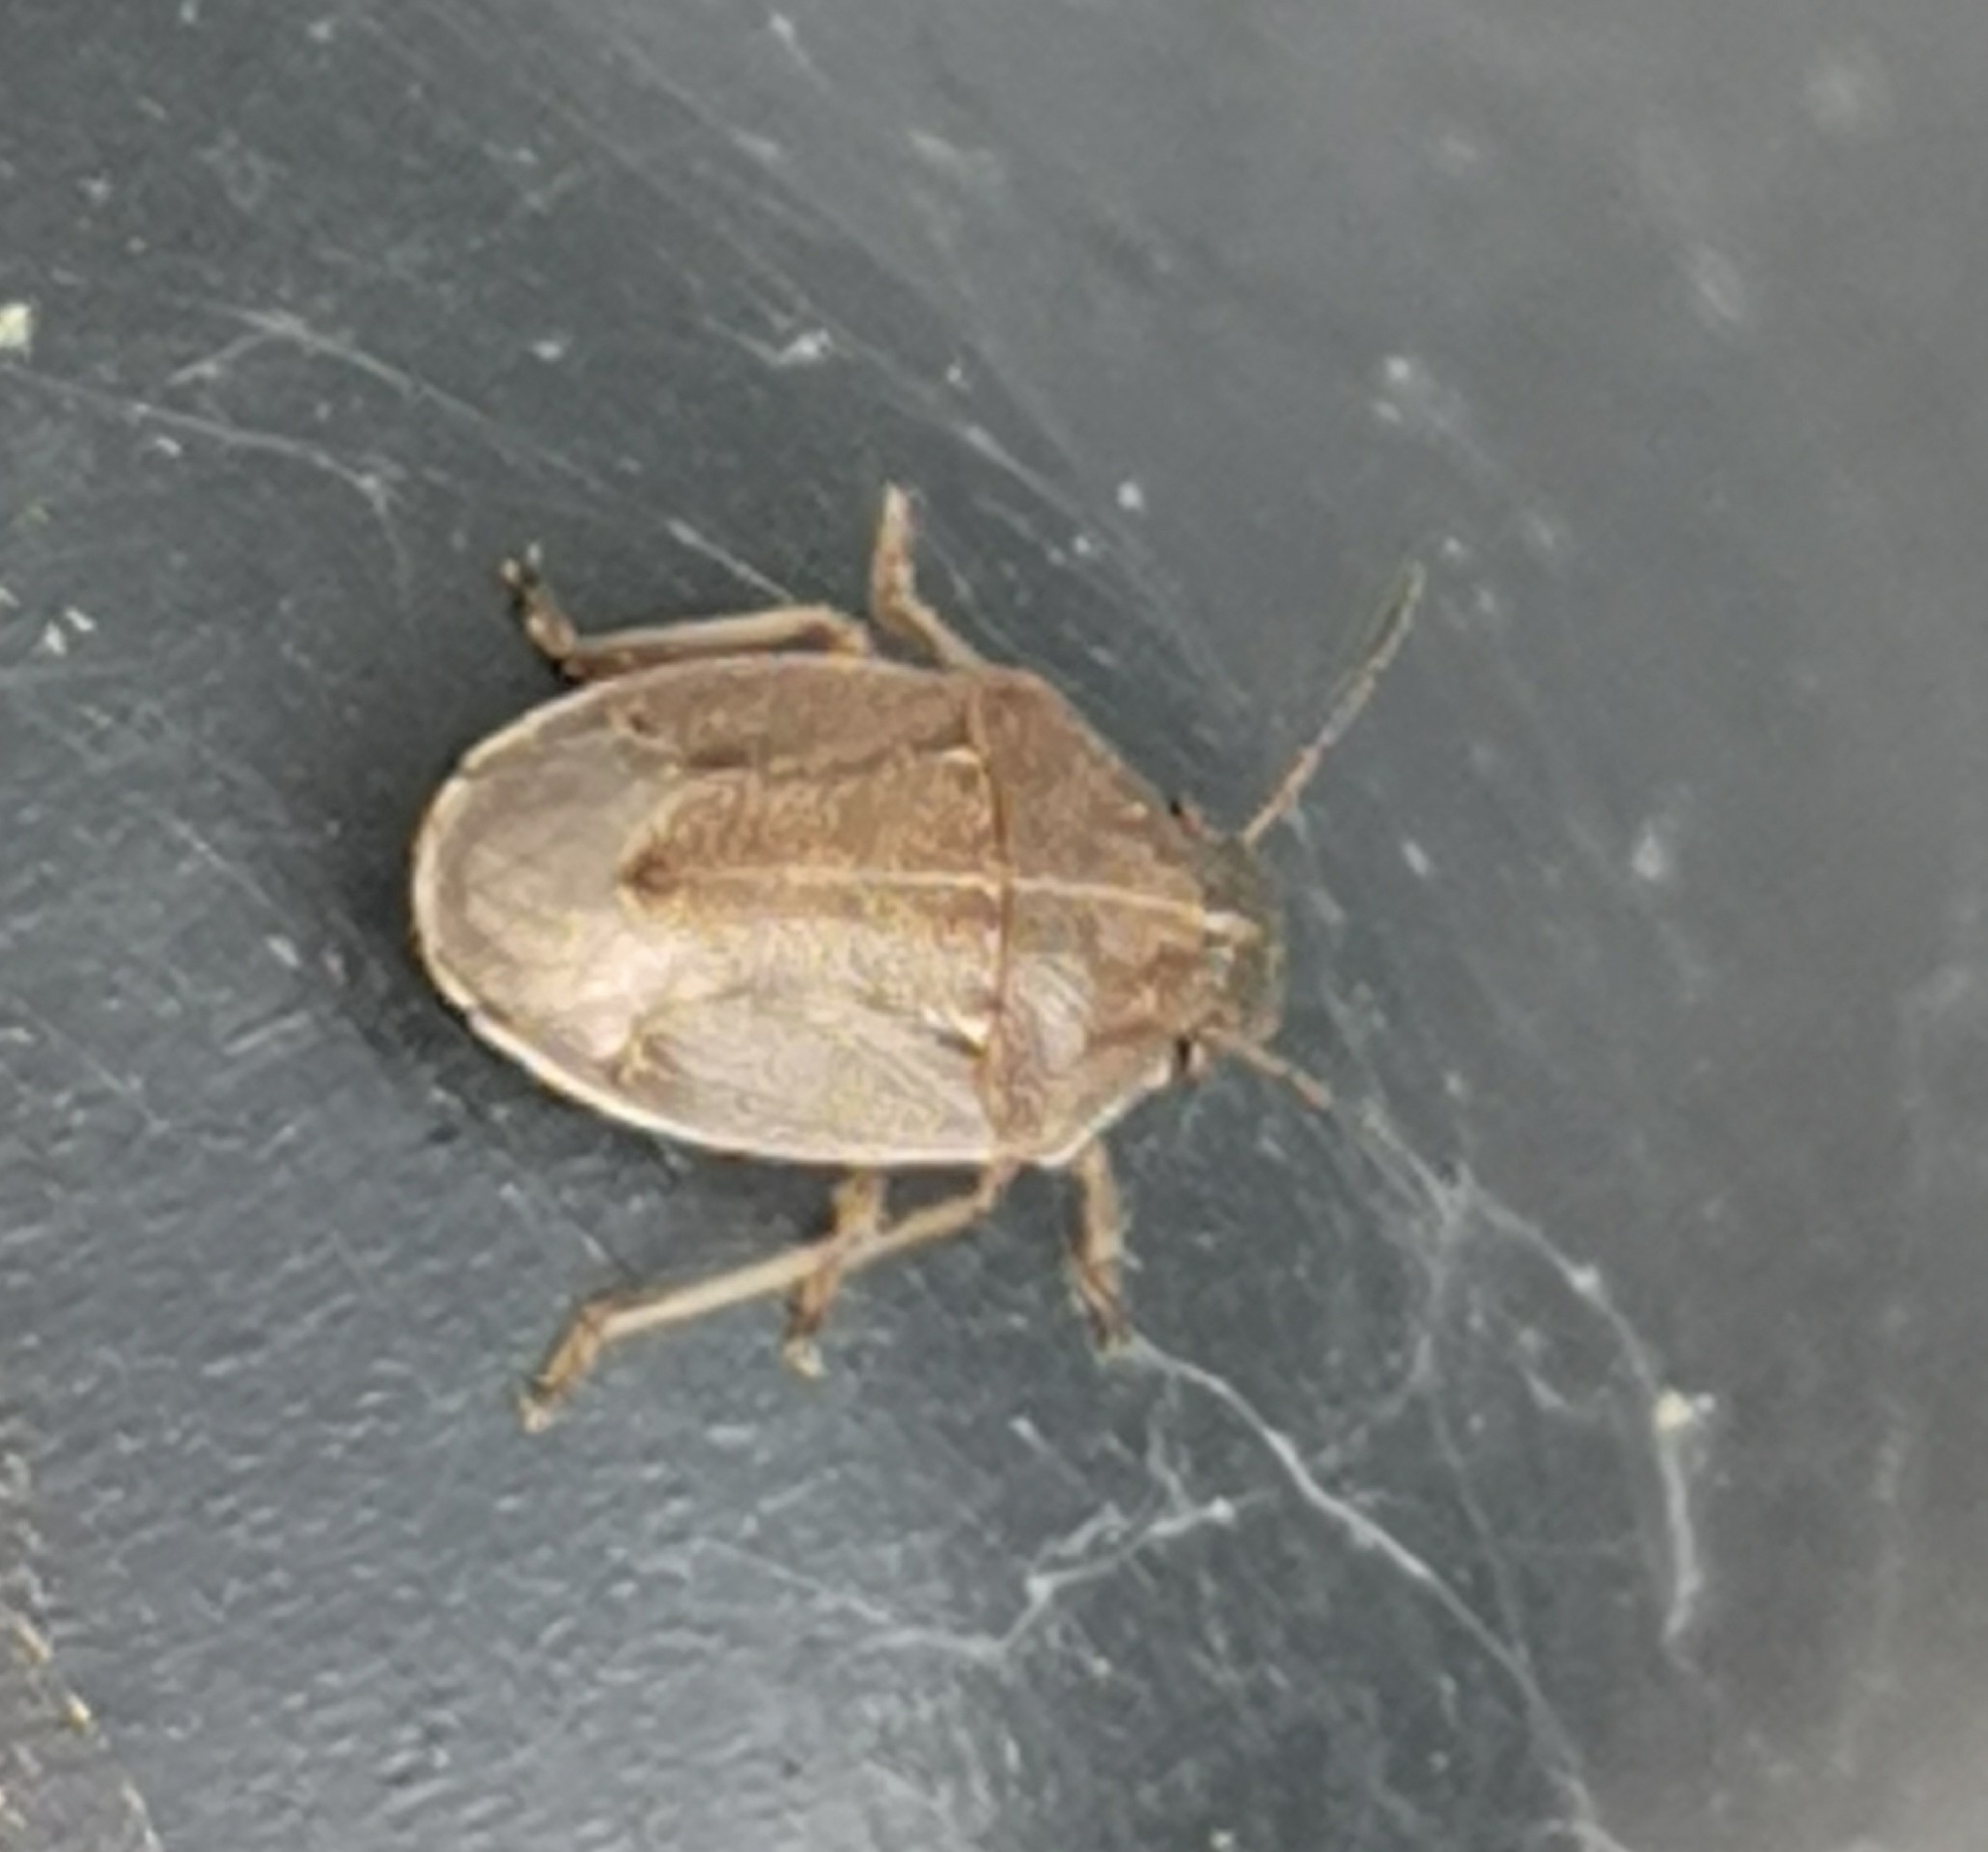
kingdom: Animalia
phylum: Arthropoda
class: Insecta
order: Hemiptera
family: Pentatomidae
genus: Neottiglossa
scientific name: Neottiglossa pusilla
